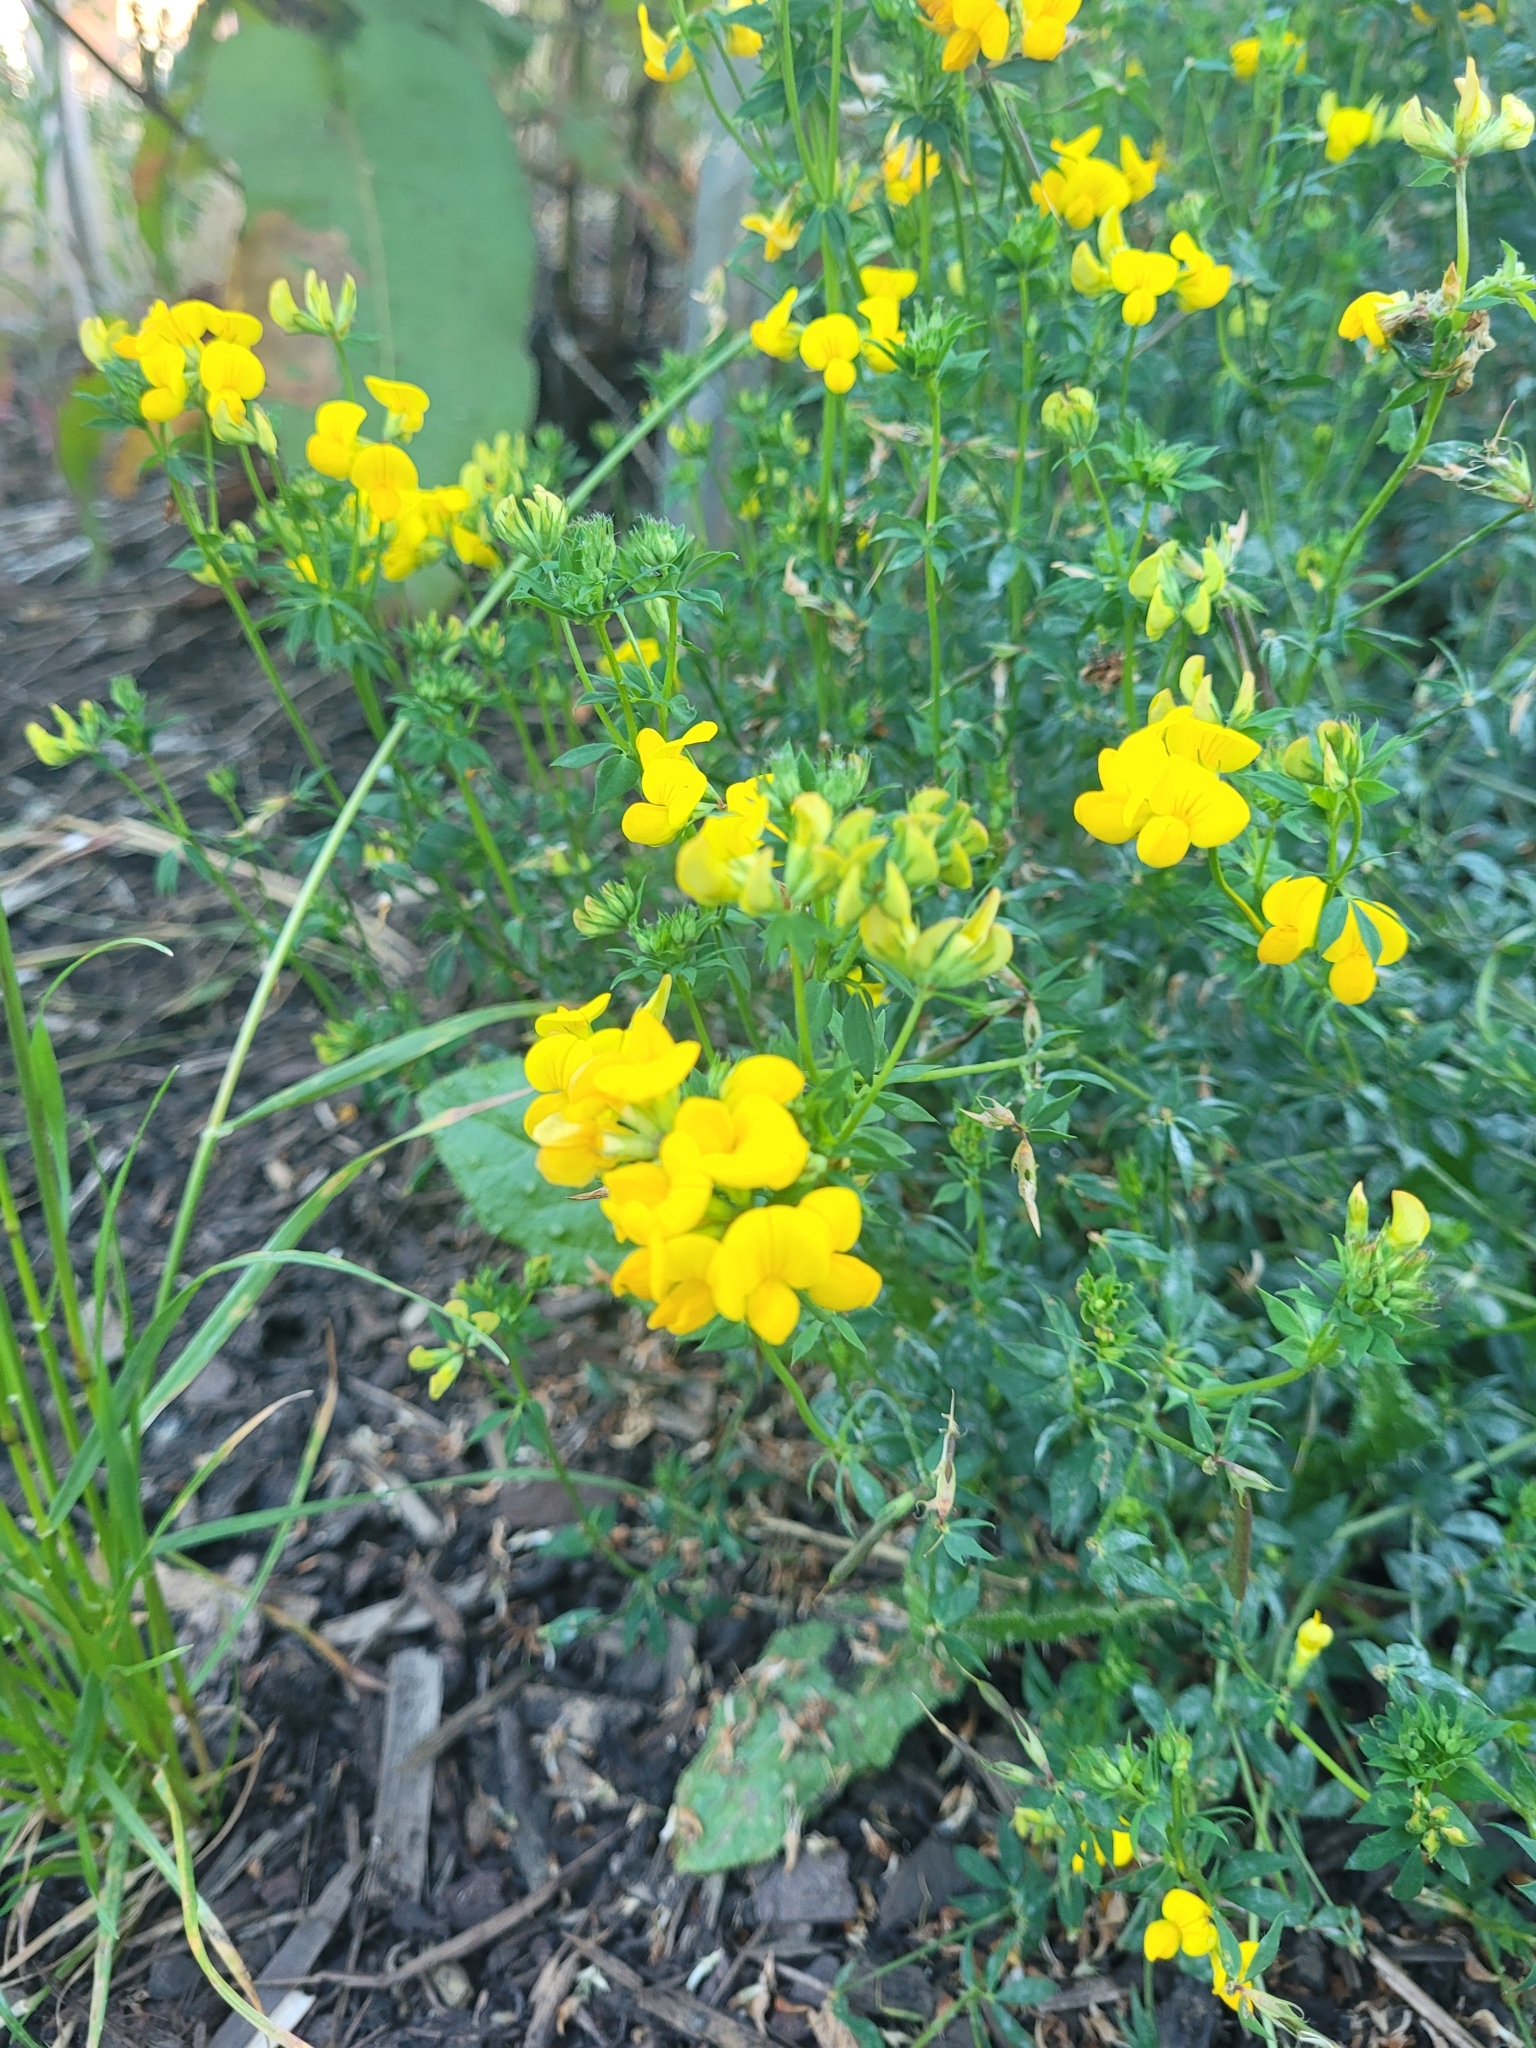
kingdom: Plantae
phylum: Tracheophyta
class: Magnoliopsida
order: Fabales
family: Fabaceae
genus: Lotus
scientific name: Lotus corniculatus
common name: Common bird's-foot-trefoil
